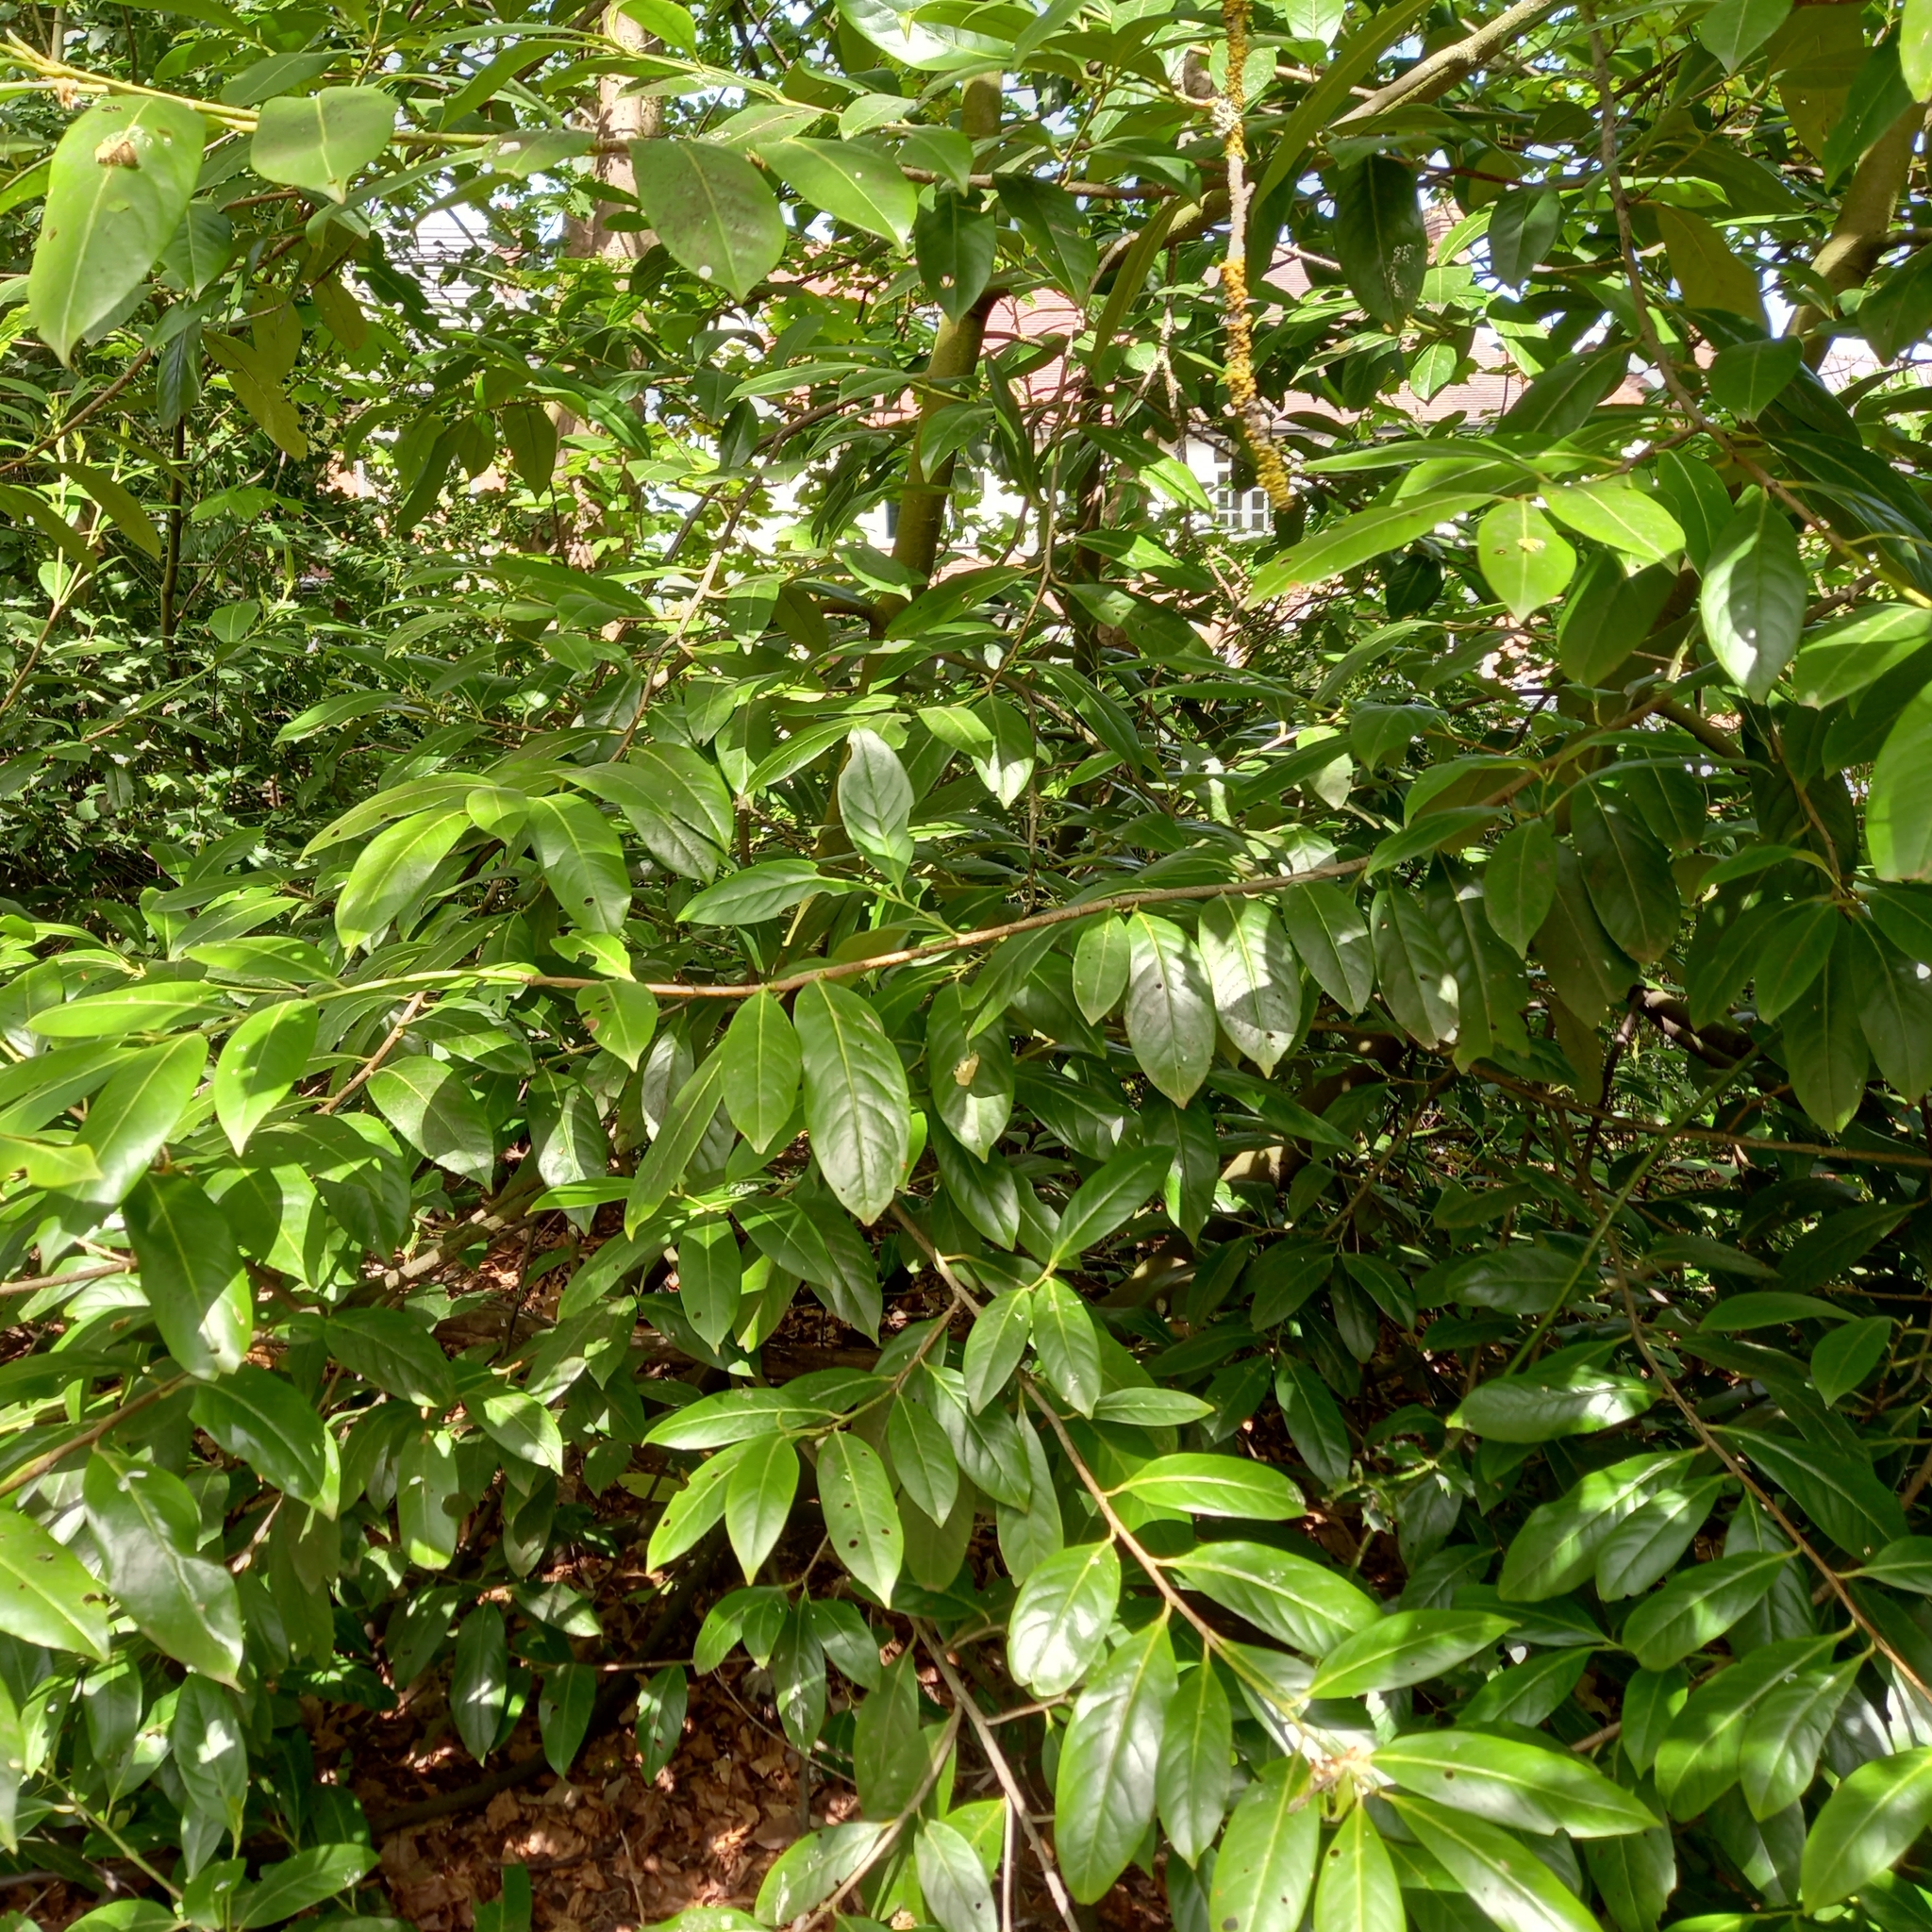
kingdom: Plantae
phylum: Tracheophyta
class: Magnoliopsida
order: Rosales
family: Rosaceae
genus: Prunus
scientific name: Prunus laurocerasus
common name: Cherry laurel
